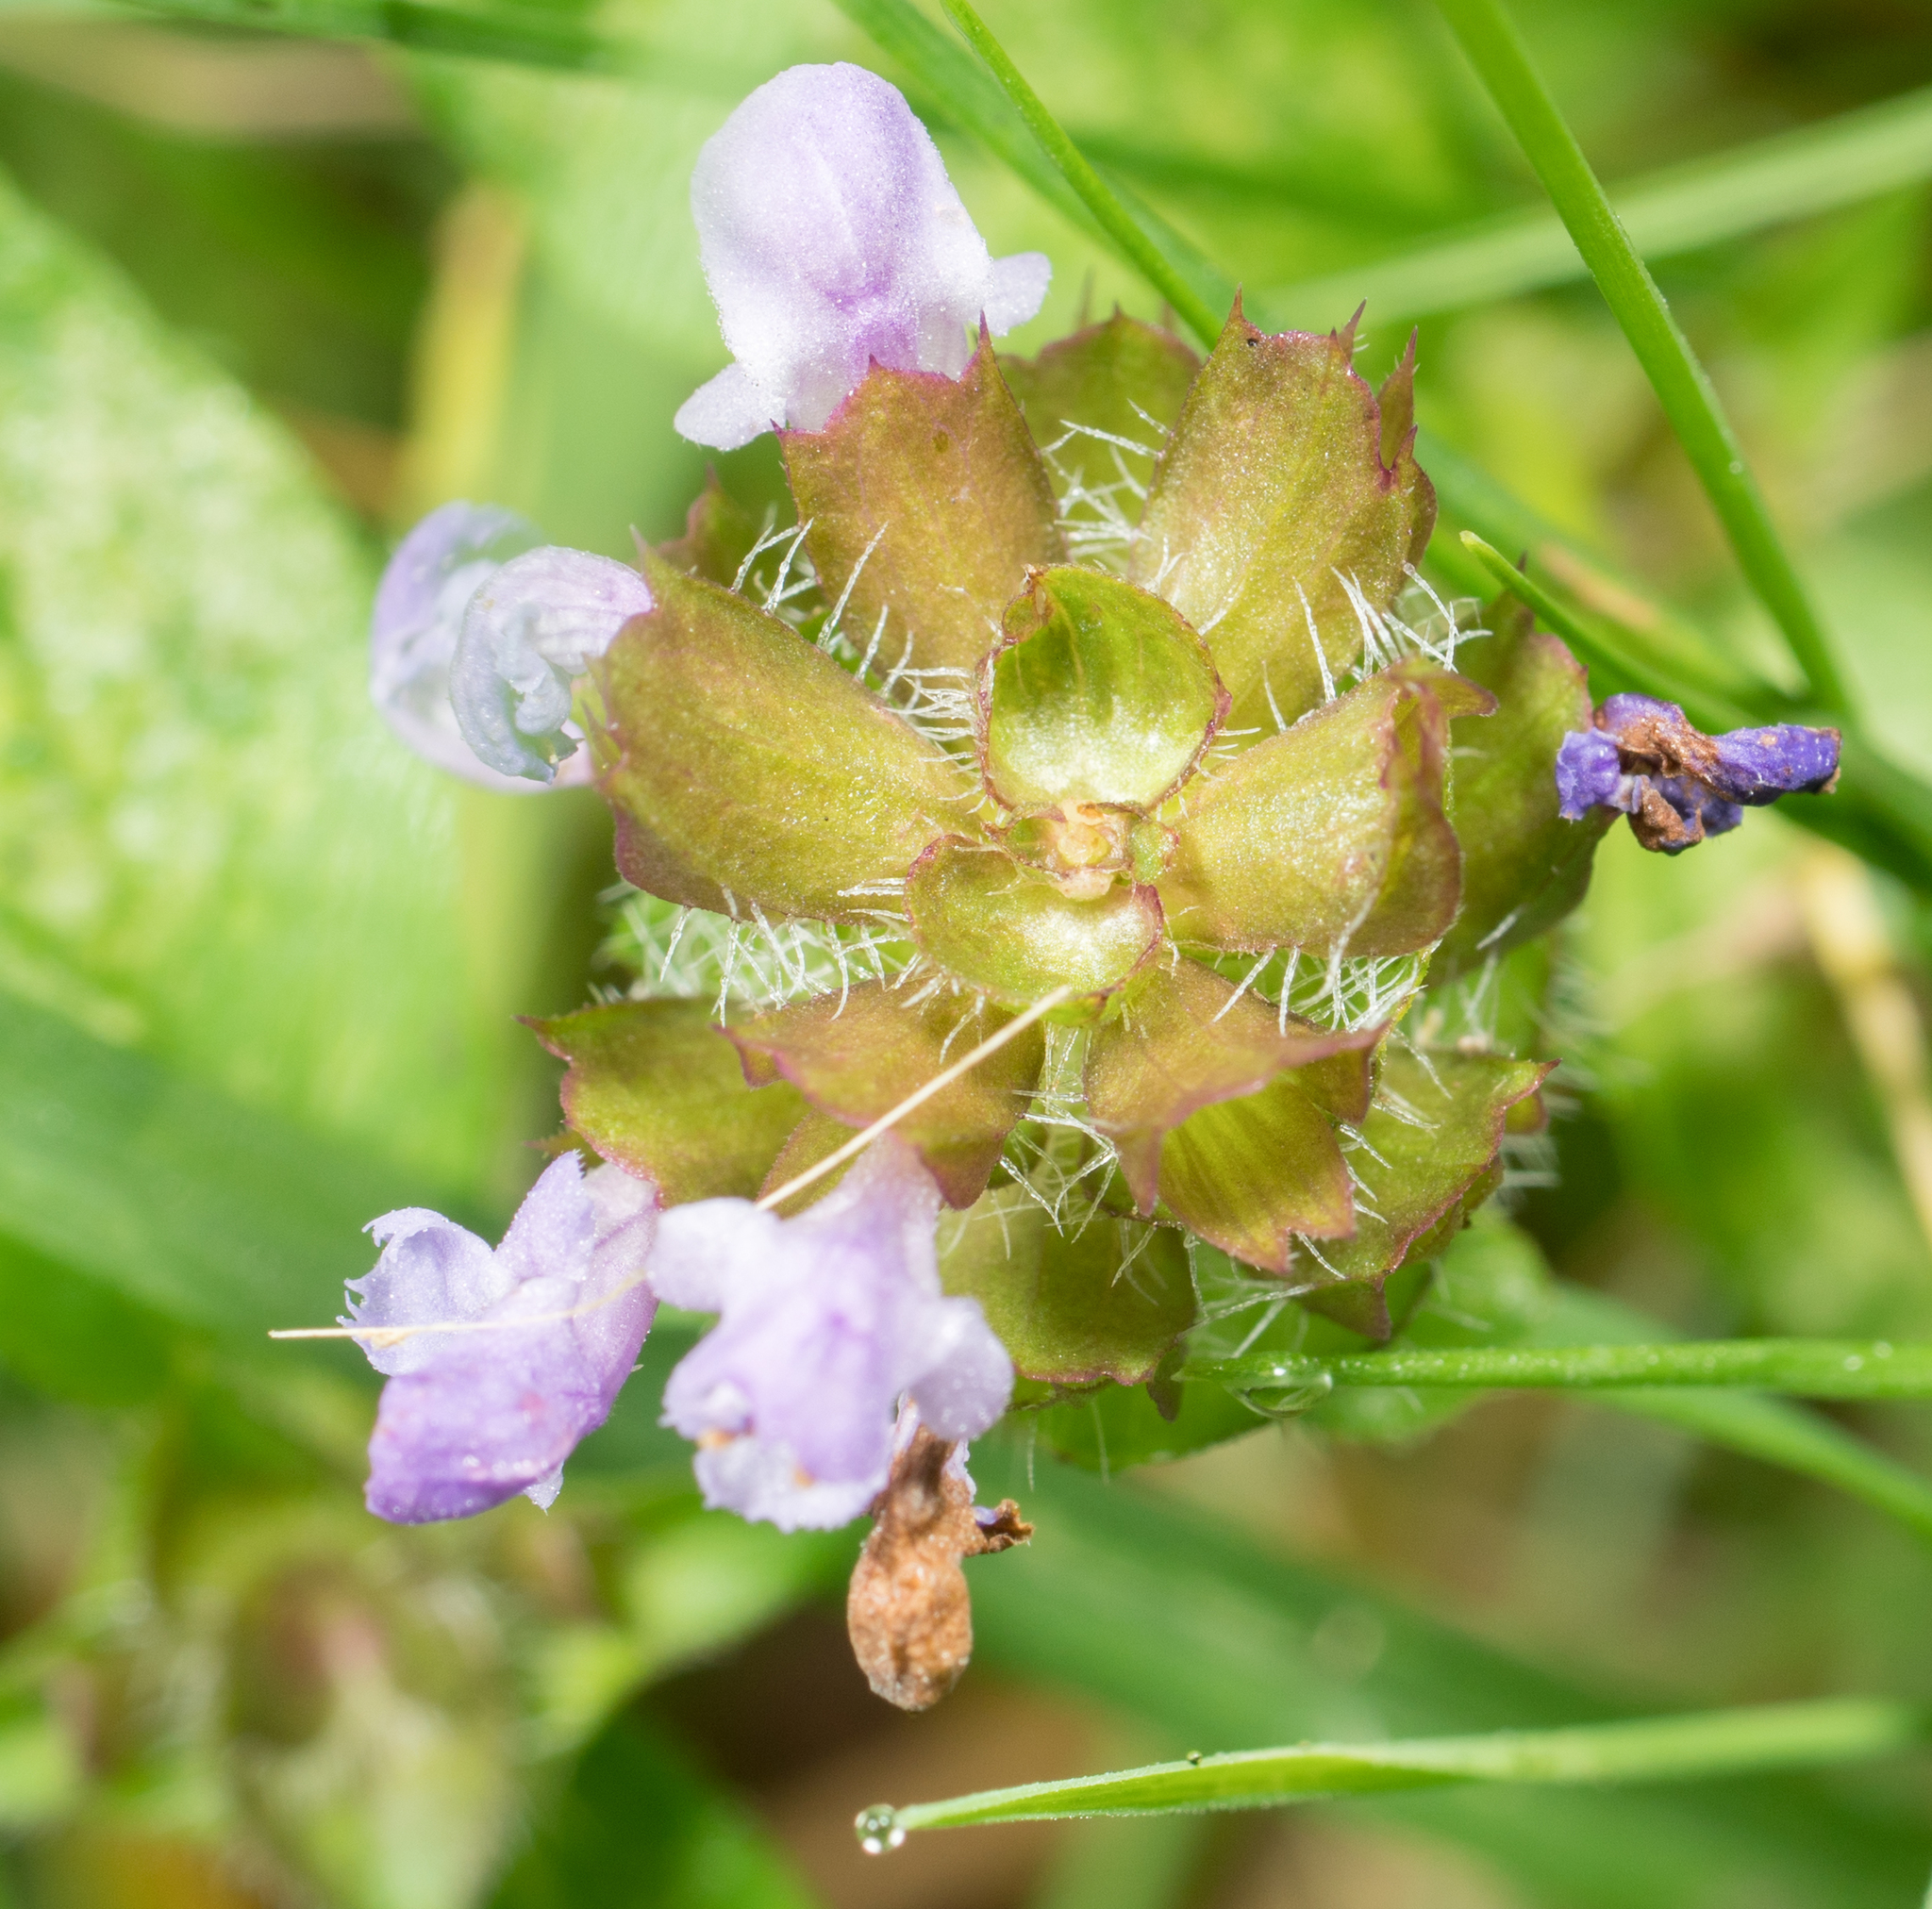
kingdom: Plantae
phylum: Tracheophyta
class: Magnoliopsida
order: Lamiales
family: Lamiaceae
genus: Prunella
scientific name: Prunella vulgaris
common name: Heal-all
